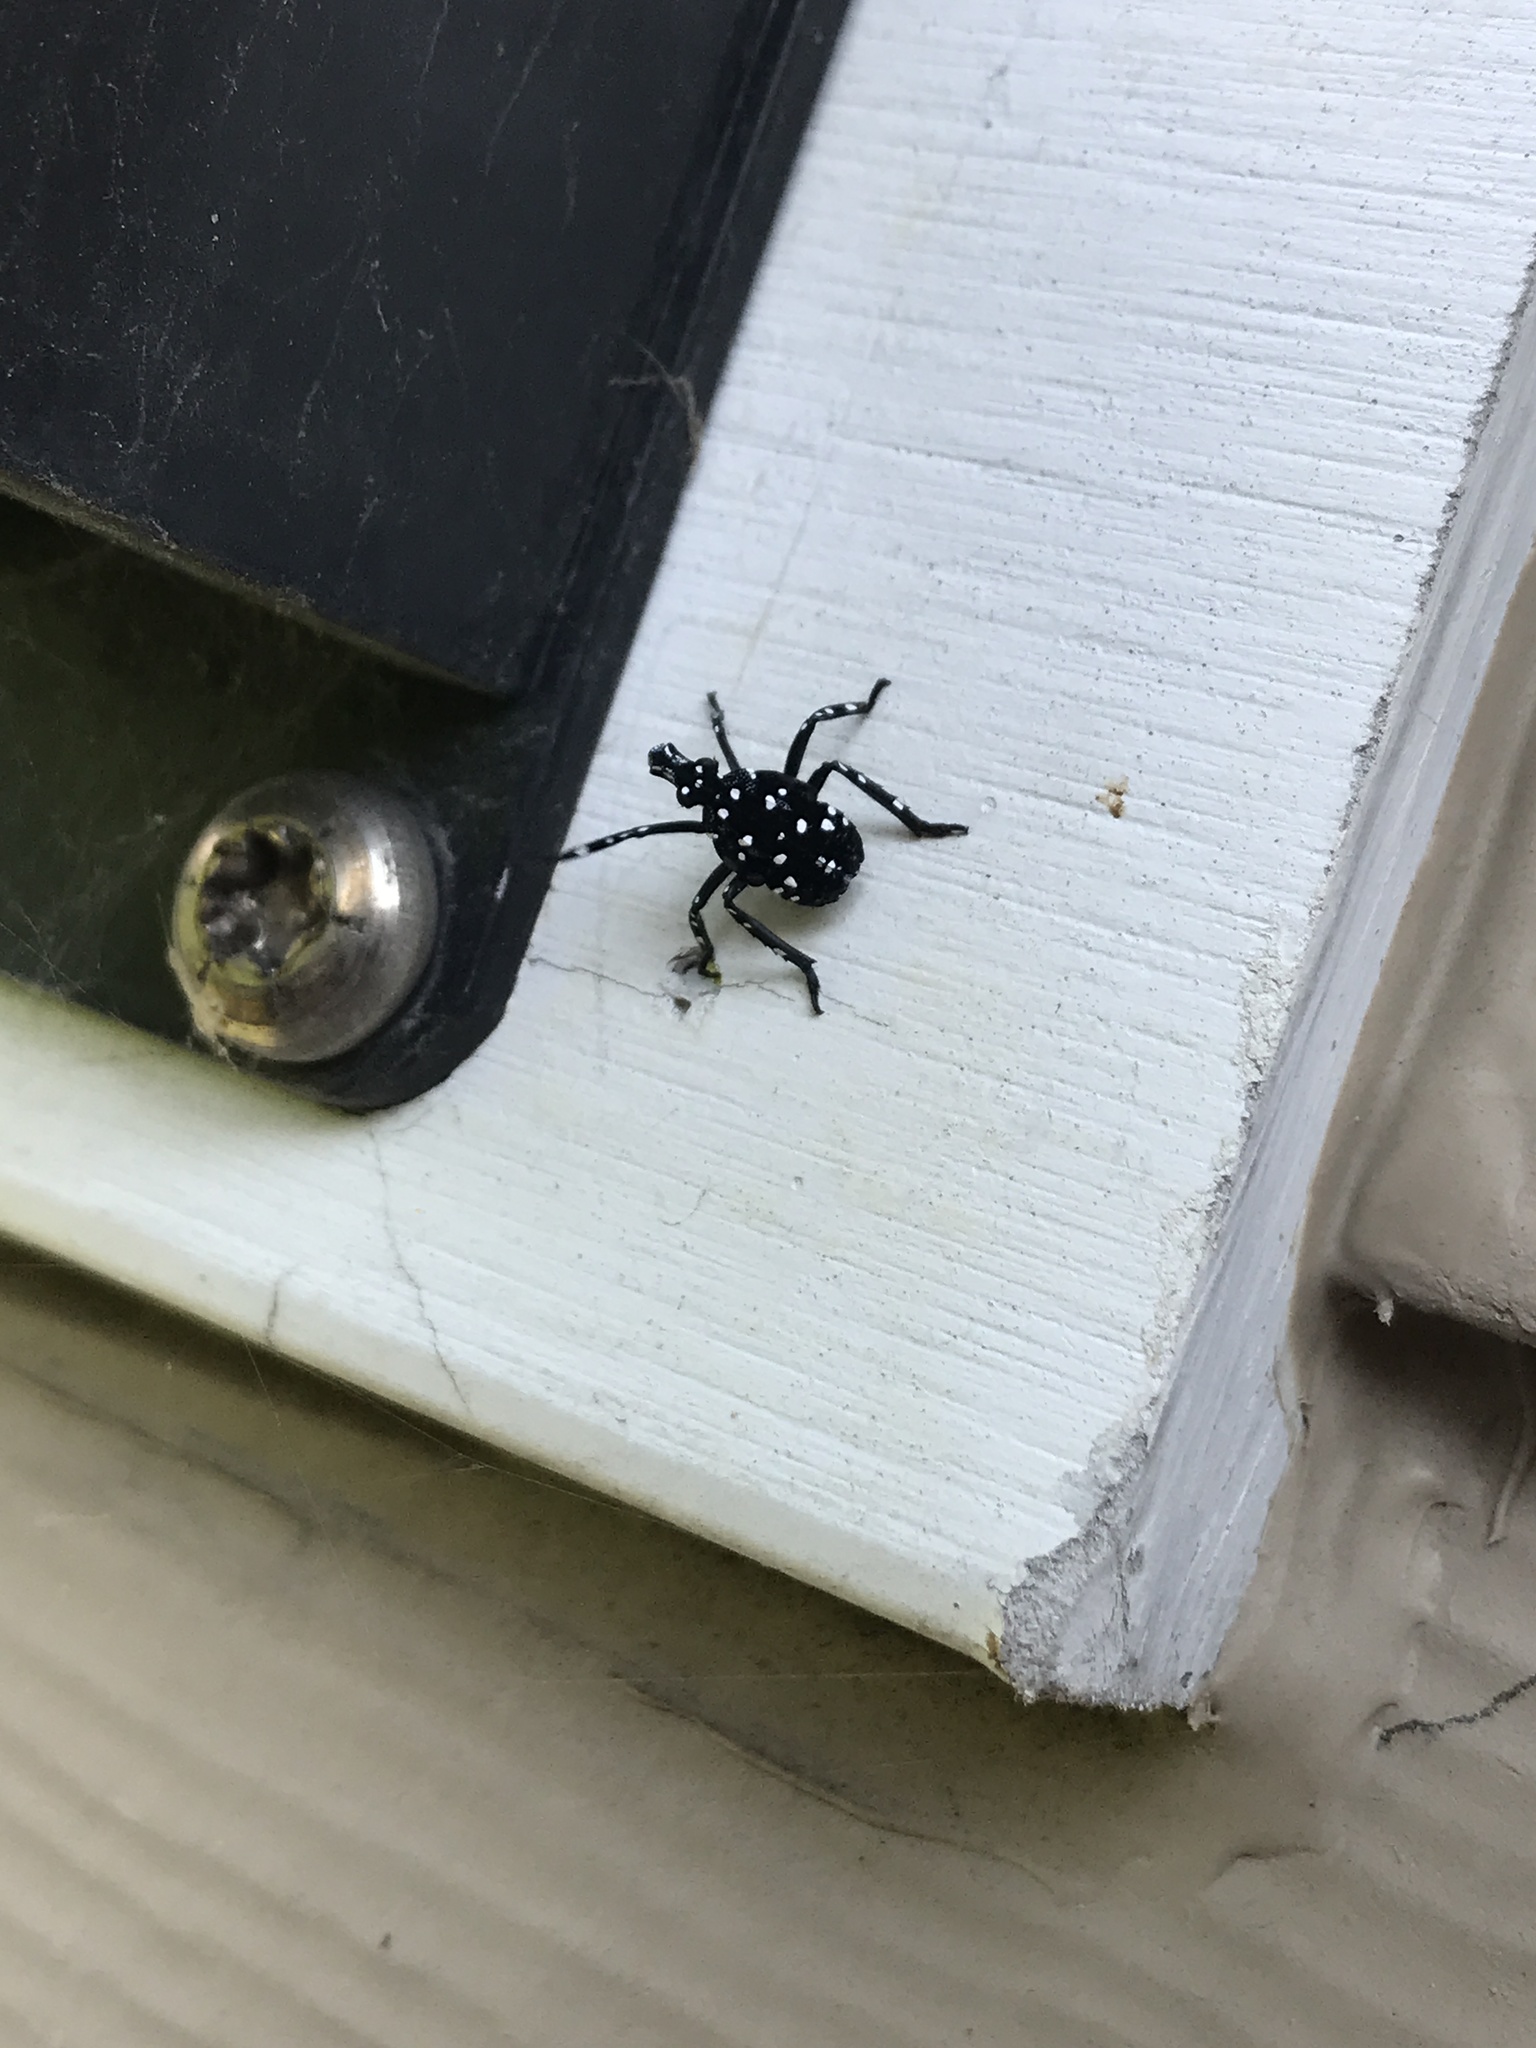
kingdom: Animalia
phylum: Arthropoda
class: Insecta
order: Hemiptera
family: Fulgoridae
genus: Lycorma
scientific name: Lycorma delicatula
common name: Spotted lanternfly
